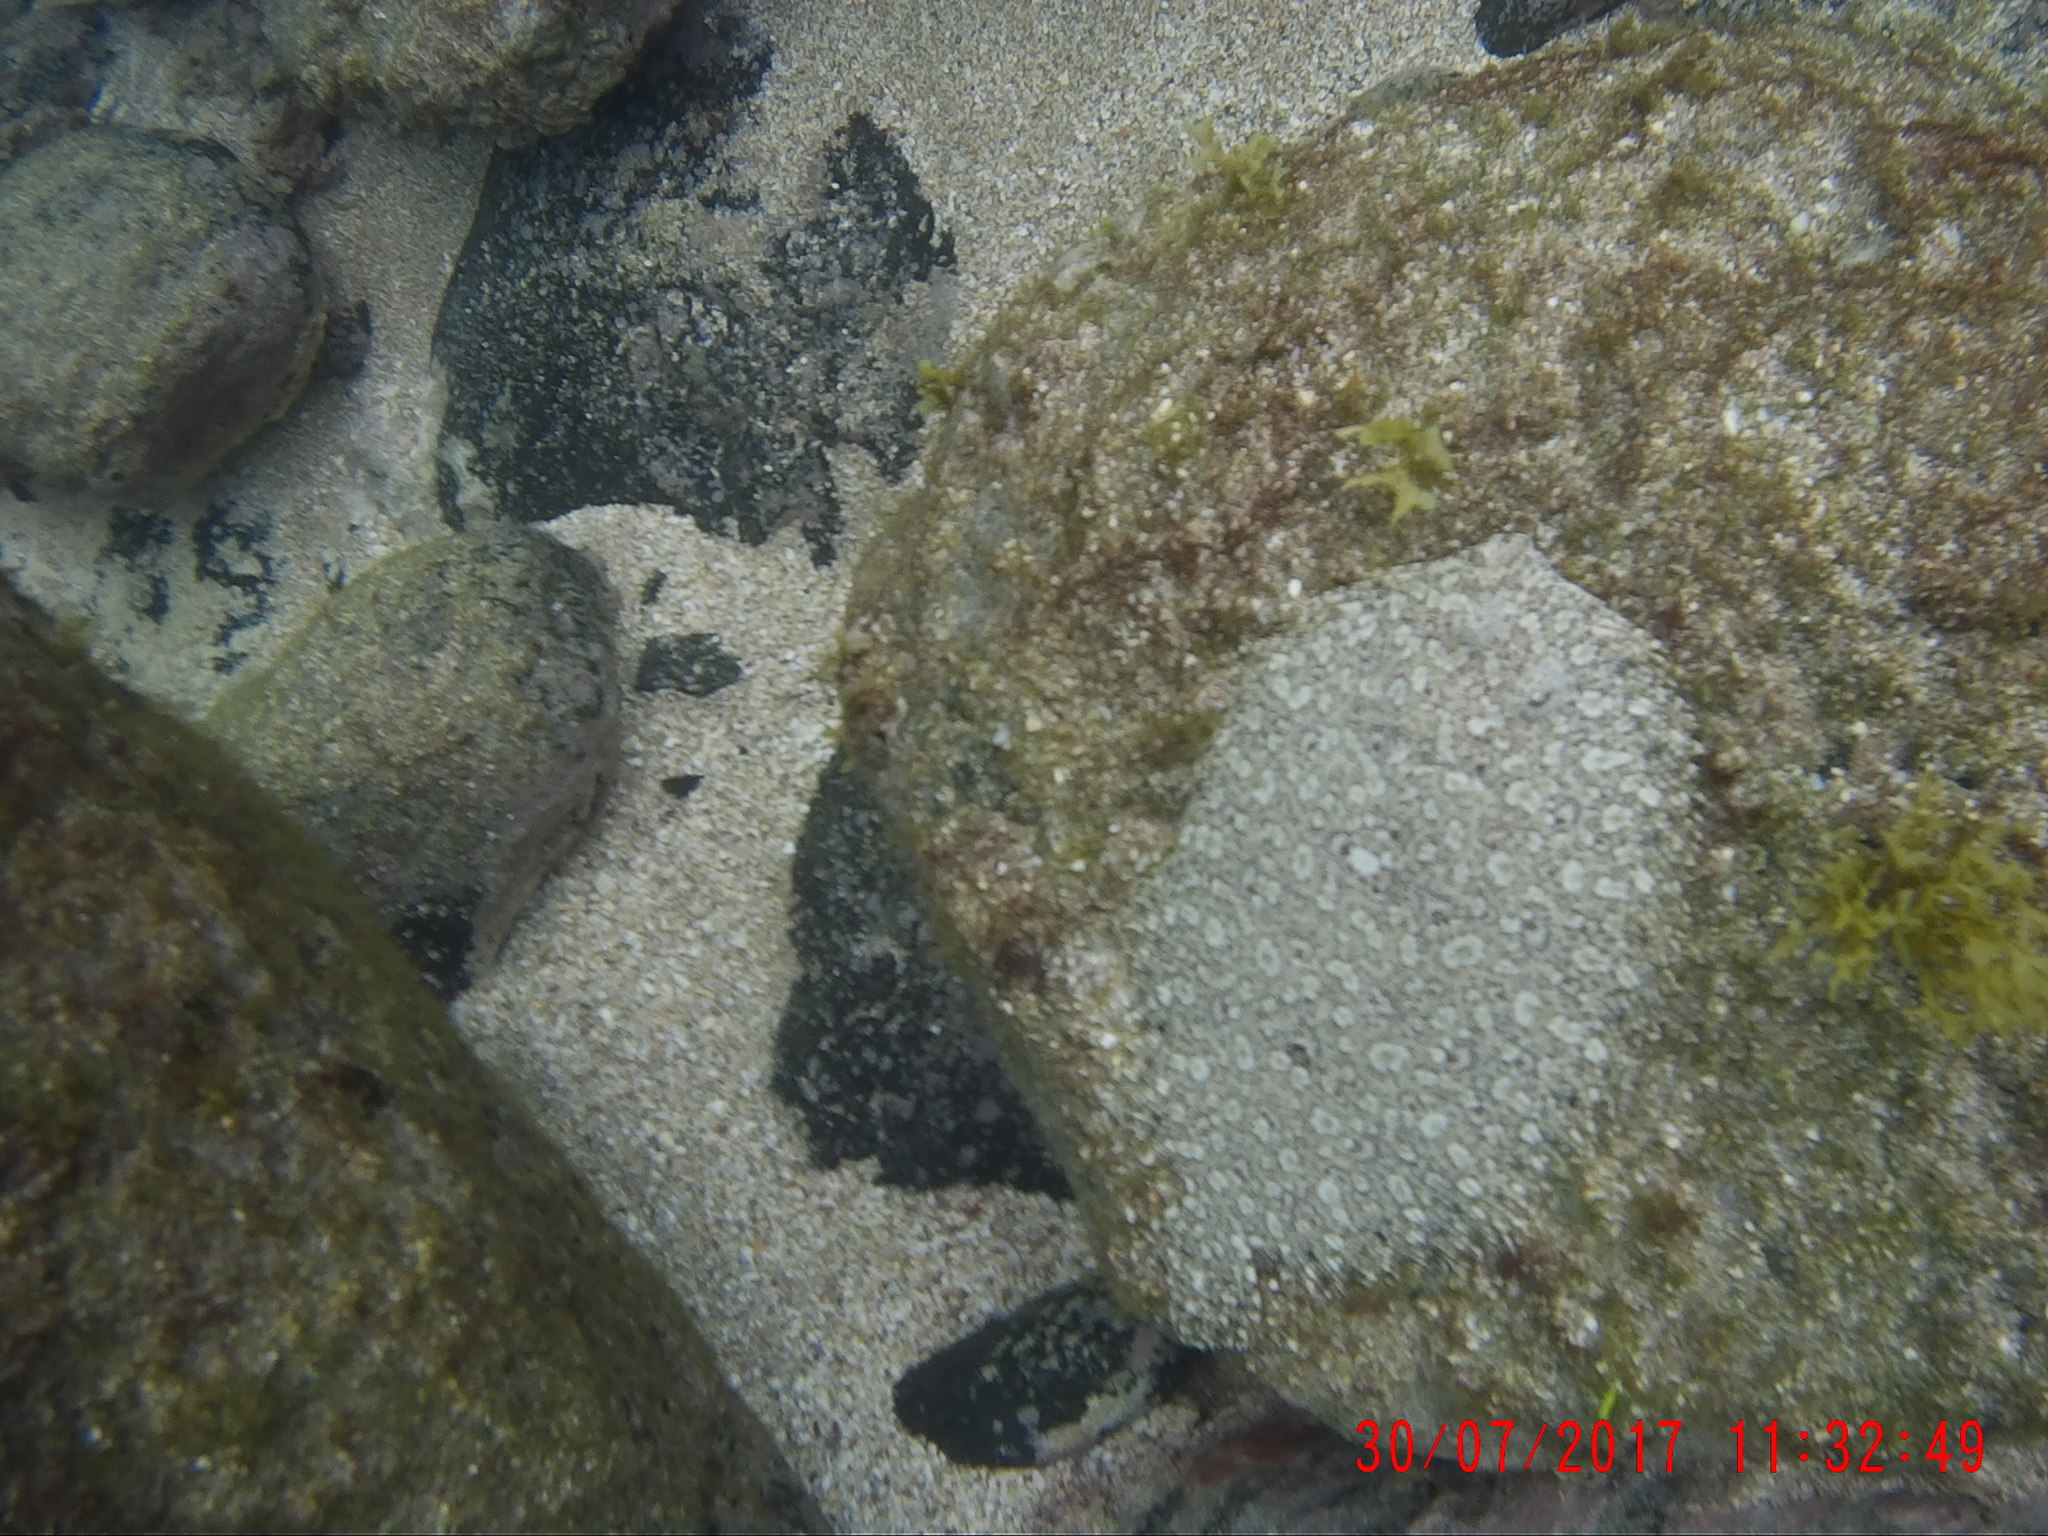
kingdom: Animalia
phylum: Chordata
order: Pleuronectiformes
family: Bothidae
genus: Bothus
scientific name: Bothus guibei
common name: Guinean flounder
